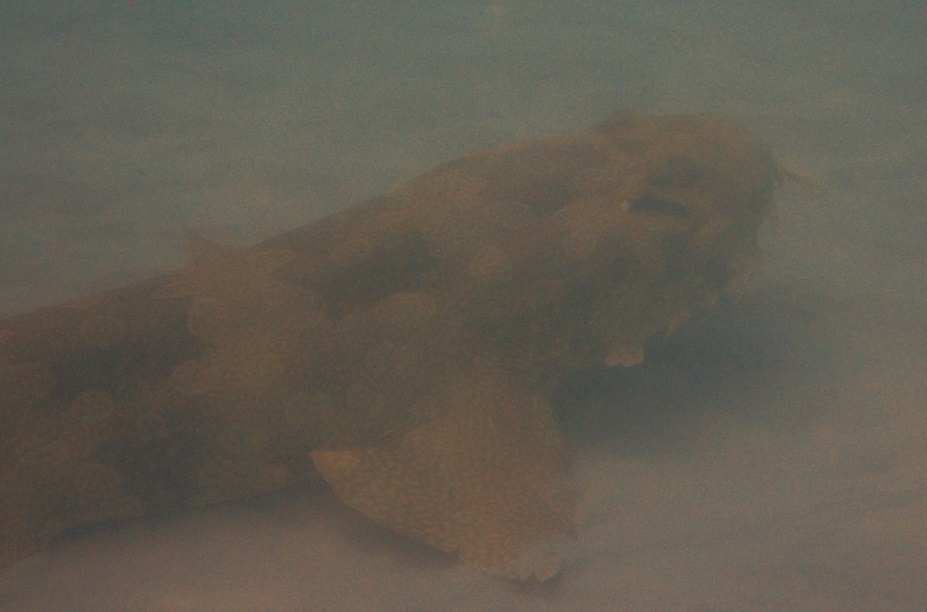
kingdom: Animalia
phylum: Chordata
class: Elasmobranchii
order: Orectolobiformes
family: Orectolobidae
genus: Orectolobus
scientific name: Orectolobus maculatus
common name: Spotted wobbegong
